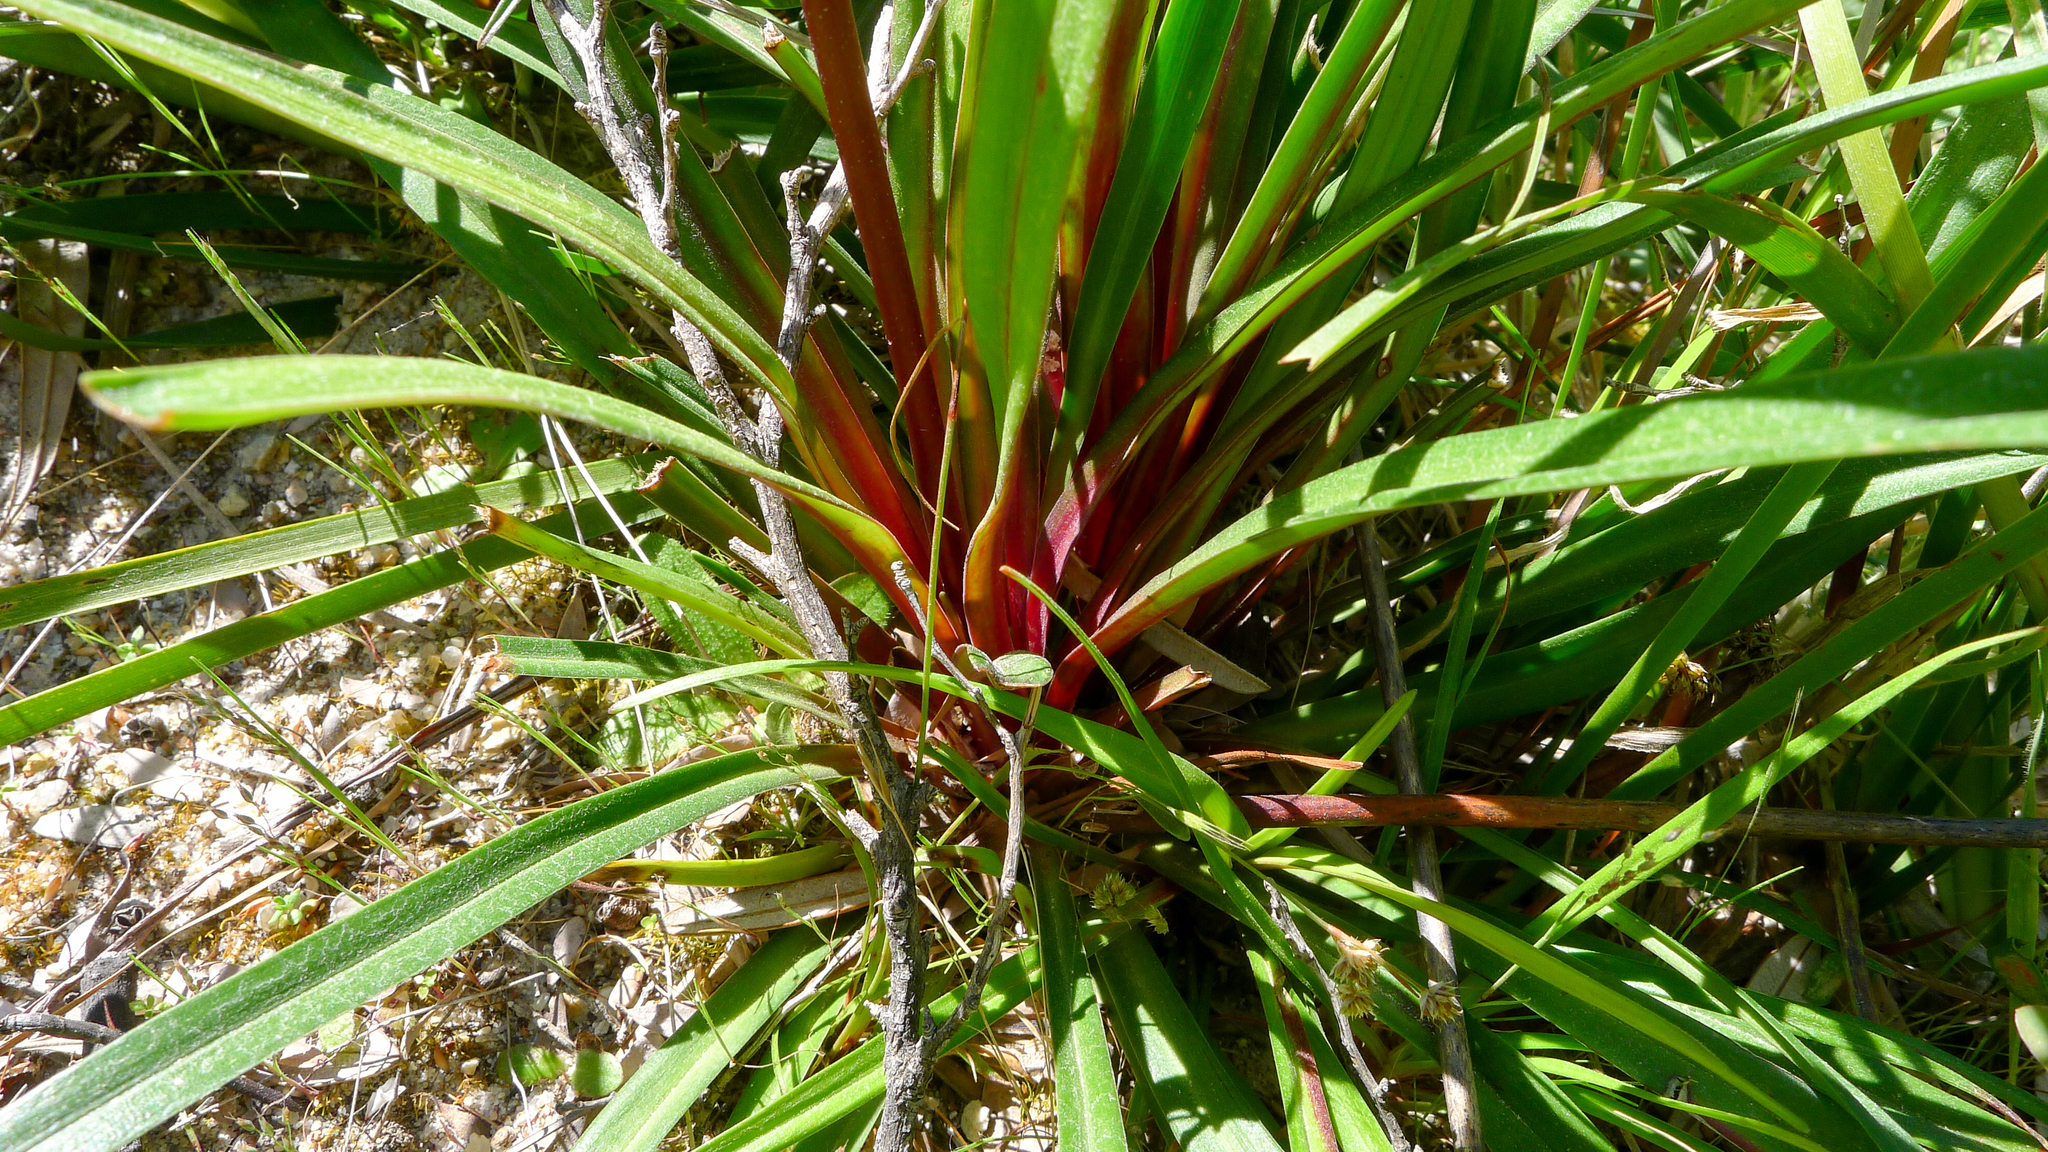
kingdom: Plantae
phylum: Tracheophyta
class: Magnoliopsida
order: Asterales
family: Stylidiaceae
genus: Stylidium
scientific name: Stylidium armeria
